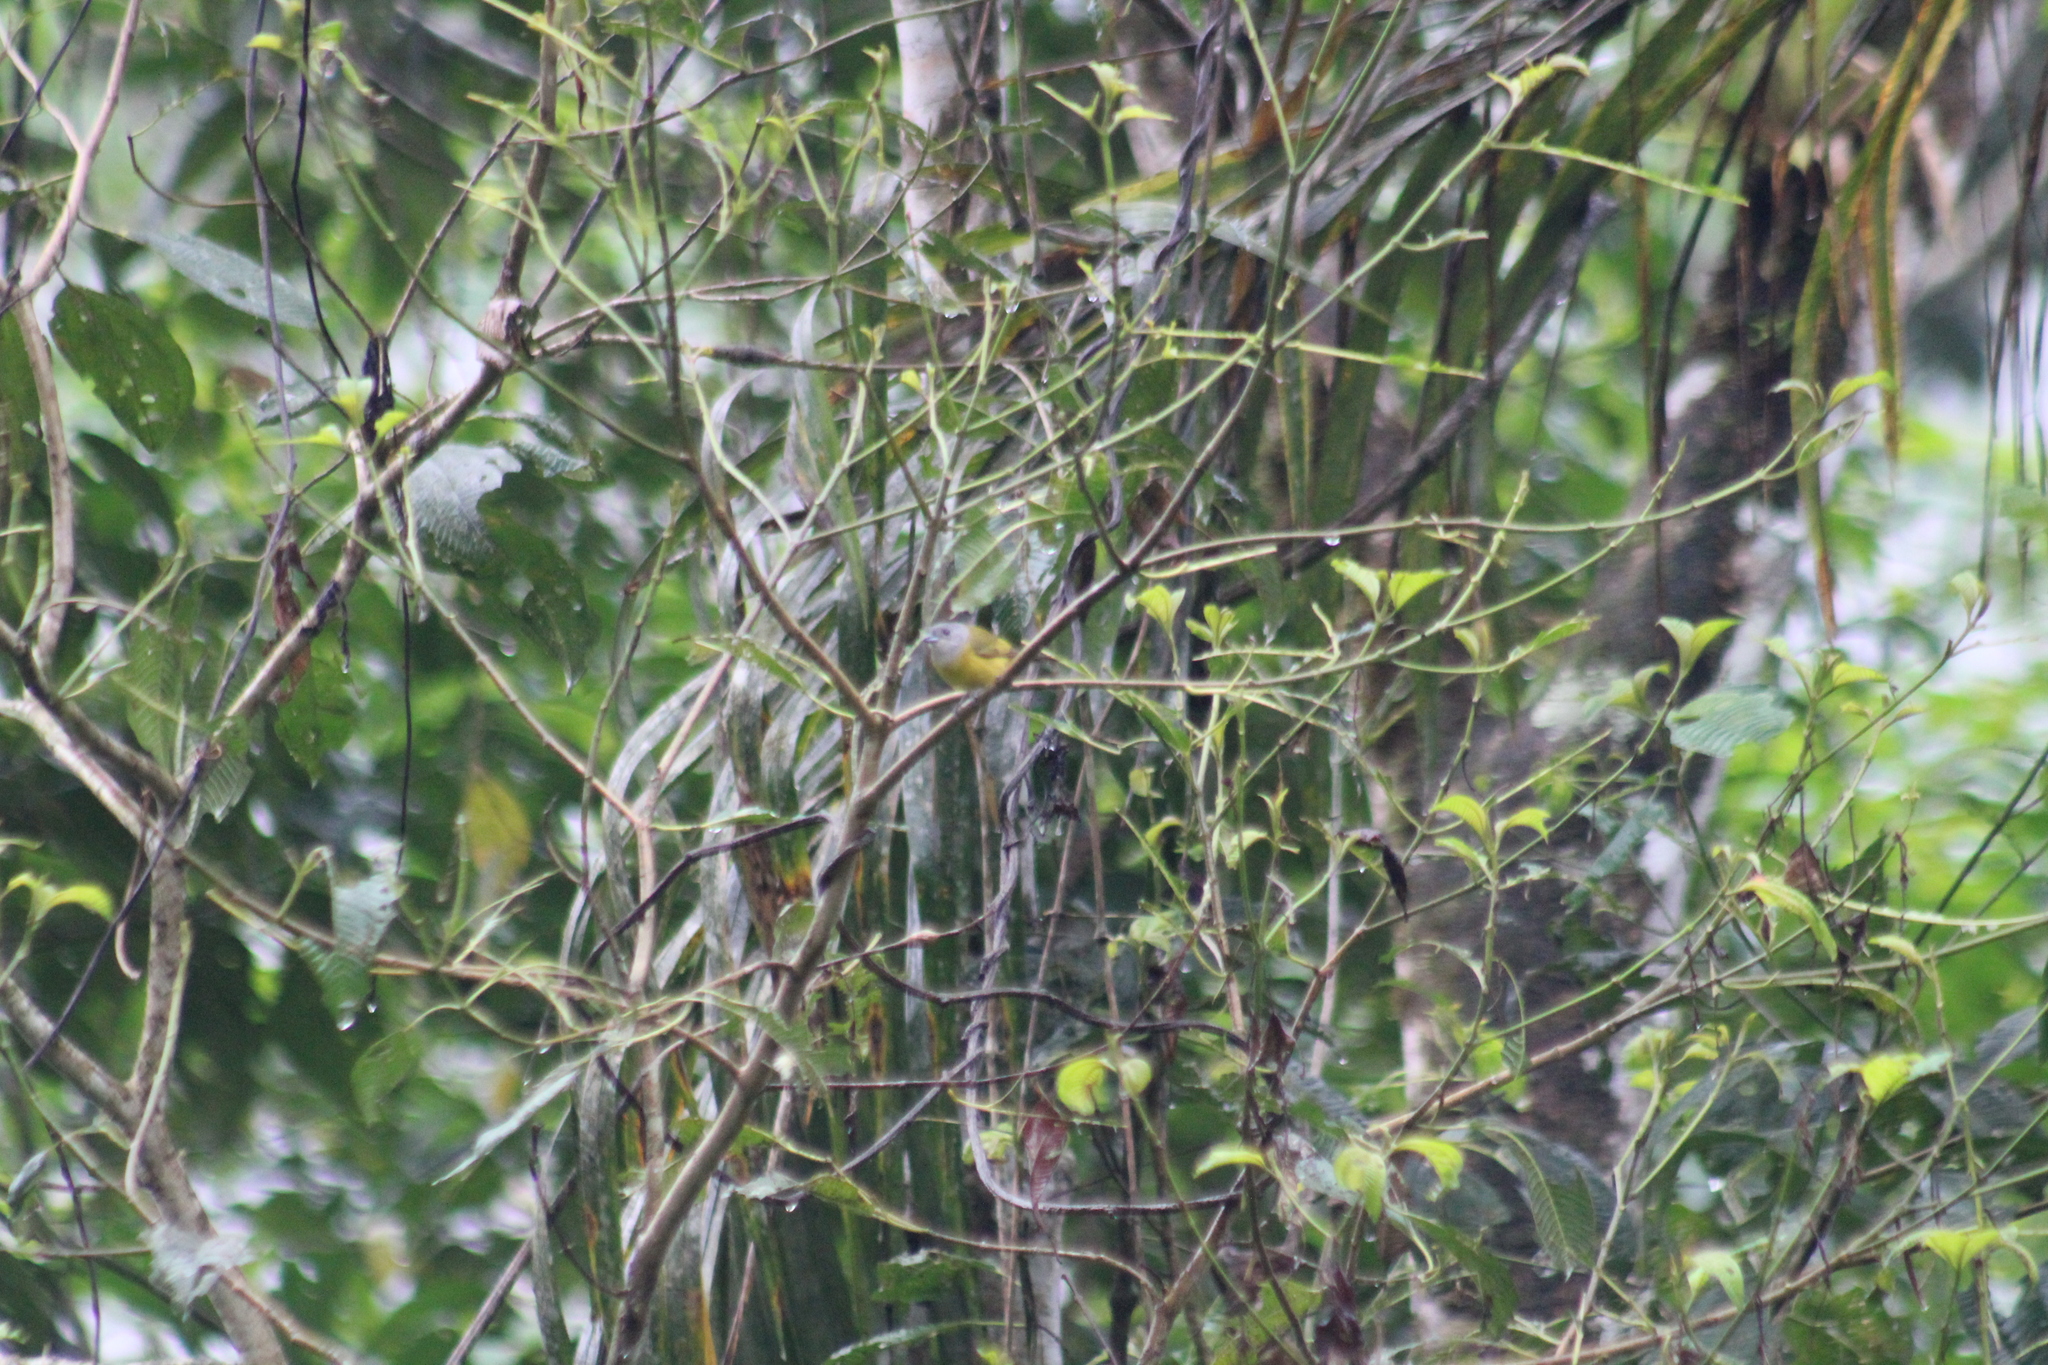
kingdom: Animalia
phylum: Chordata
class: Aves
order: Passeriformes
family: Thraupidae
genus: Loriotus
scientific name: Loriotus luctuosus
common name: White-shouldered tanager
